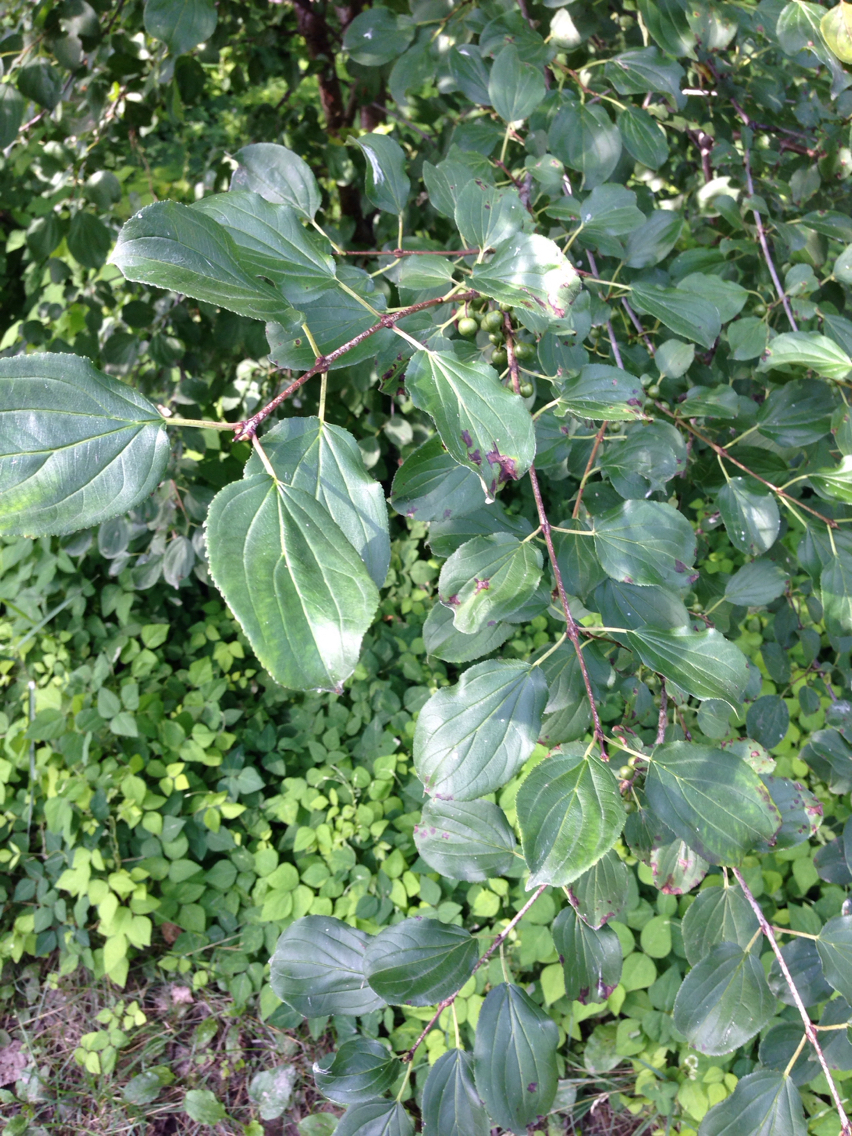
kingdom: Plantae
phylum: Tracheophyta
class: Magnoliopsida
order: Rosales
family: Rhamnaceae
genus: Rhamnus
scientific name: Rhamnus cathartica
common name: Common buckthorn
